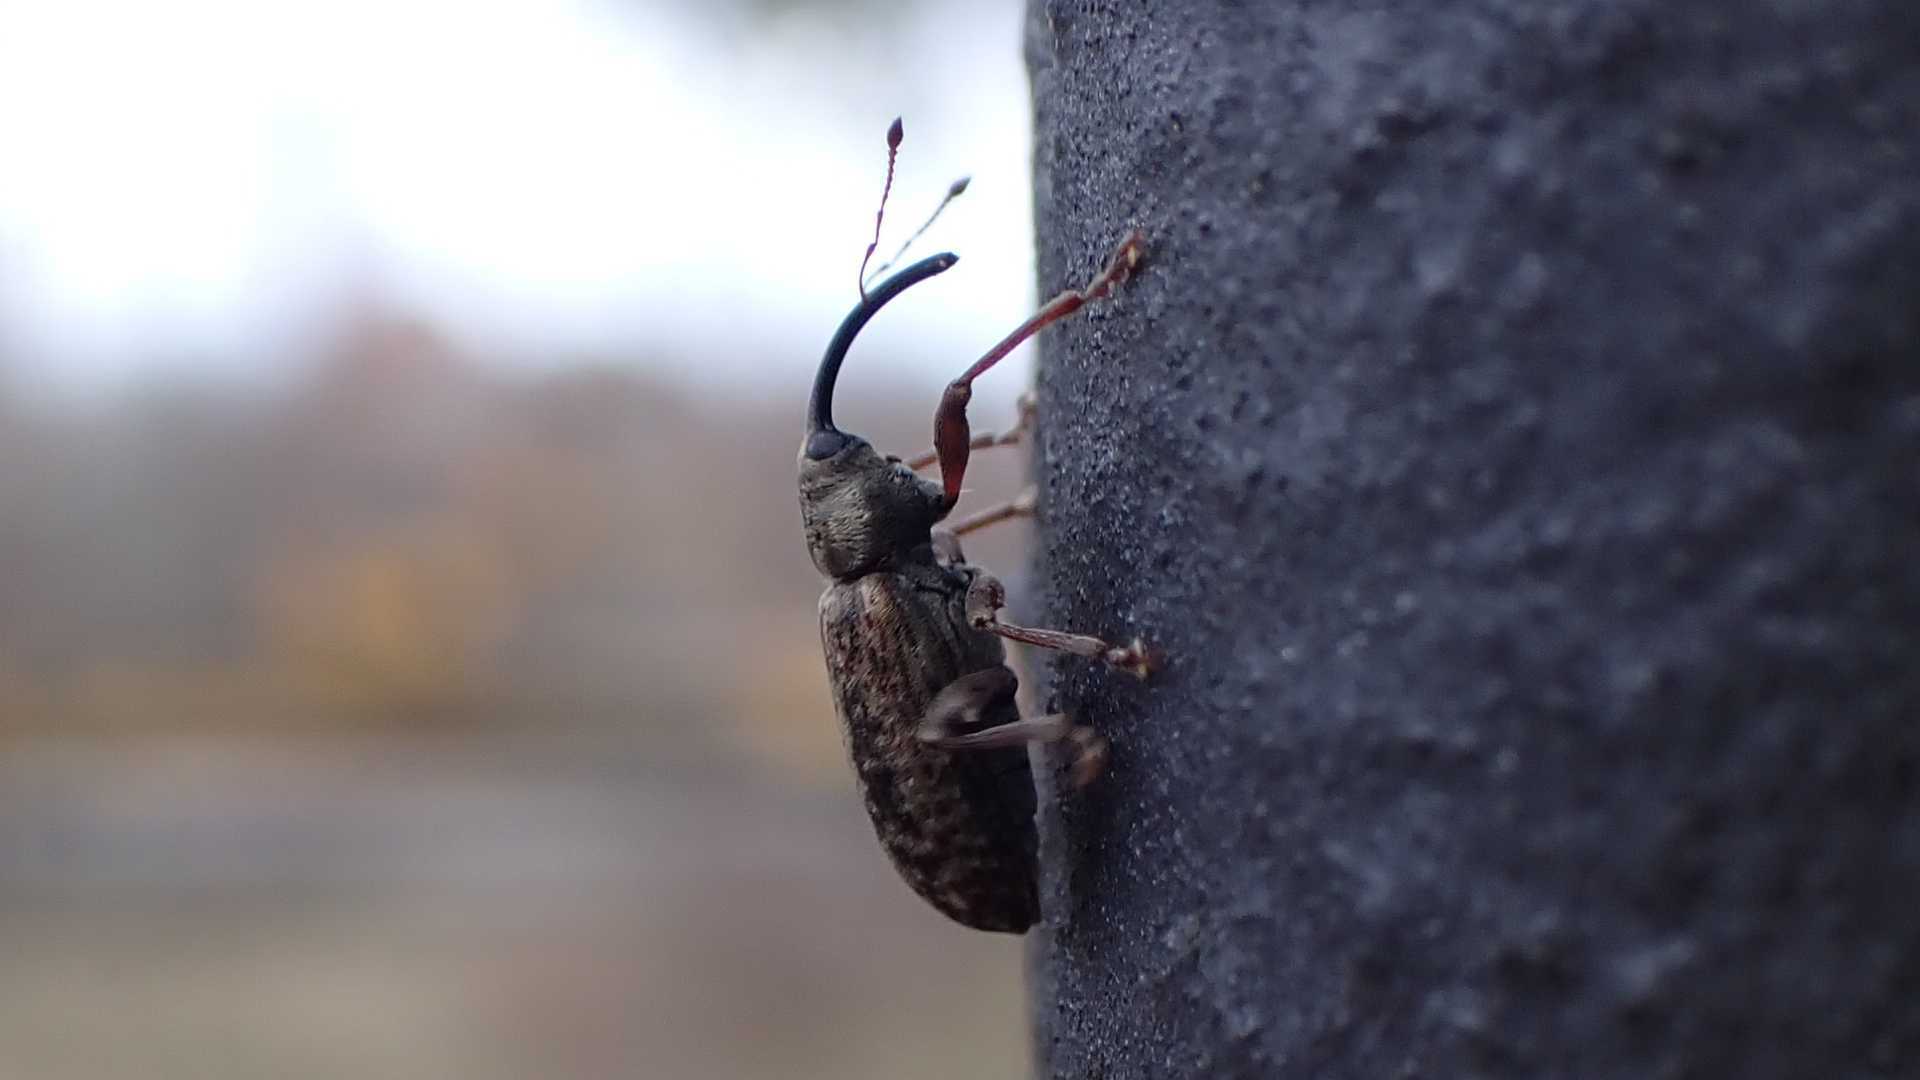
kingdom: Animalia
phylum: Arthropoda
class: Insecta
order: Coleoptera
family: Curculionidae
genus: Dorytomus
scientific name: Dorytomus longimanus
